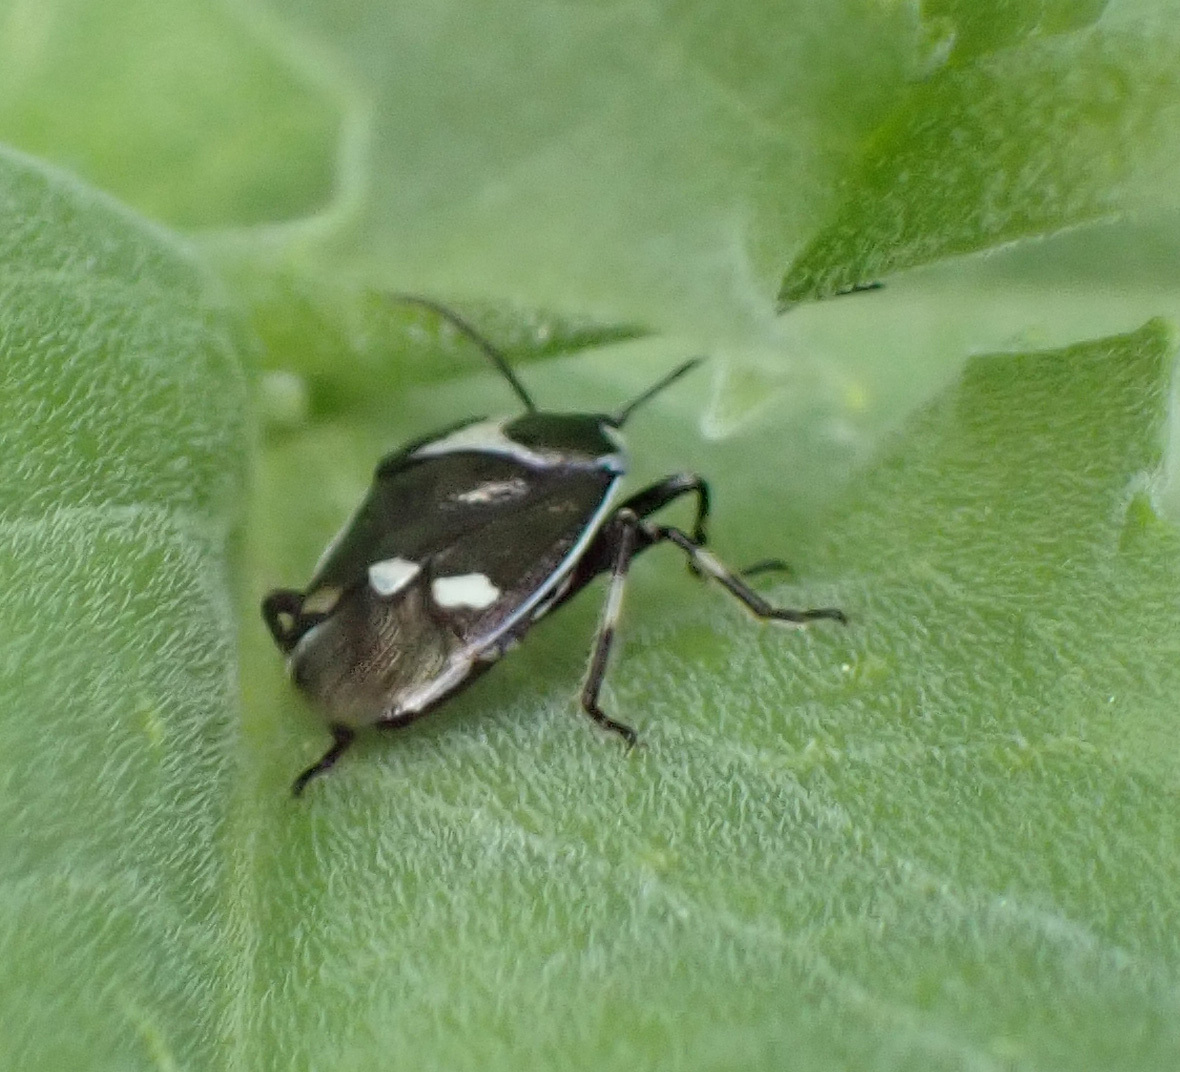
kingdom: Animalia
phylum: Arthropoda
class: Insecta
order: Hemiptera
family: Pentatomidae
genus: Eurydema
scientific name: Eurydema oleracea
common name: Cabbage bug
